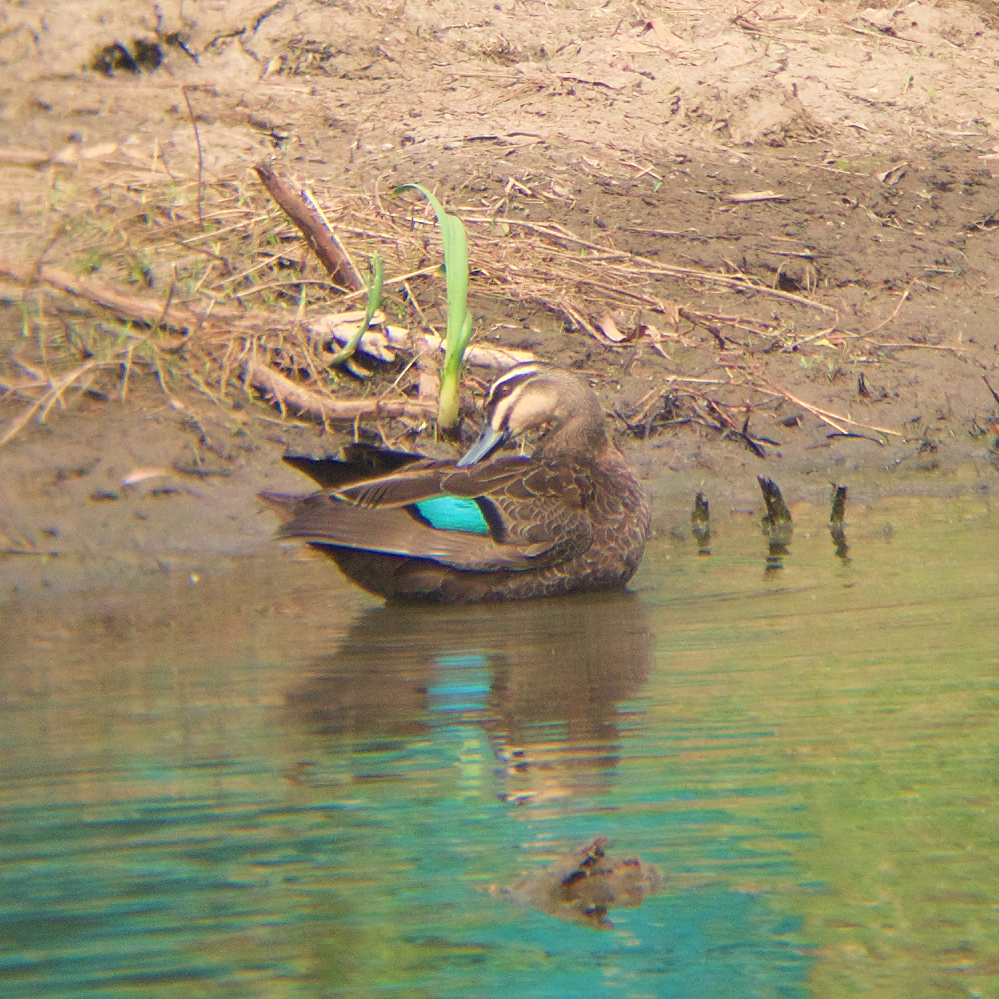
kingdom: Animalia
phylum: Chordata
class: Aves
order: Anseriformes
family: Anatidae
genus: Anas
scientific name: Anas superciliosa
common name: Pacific black duck
